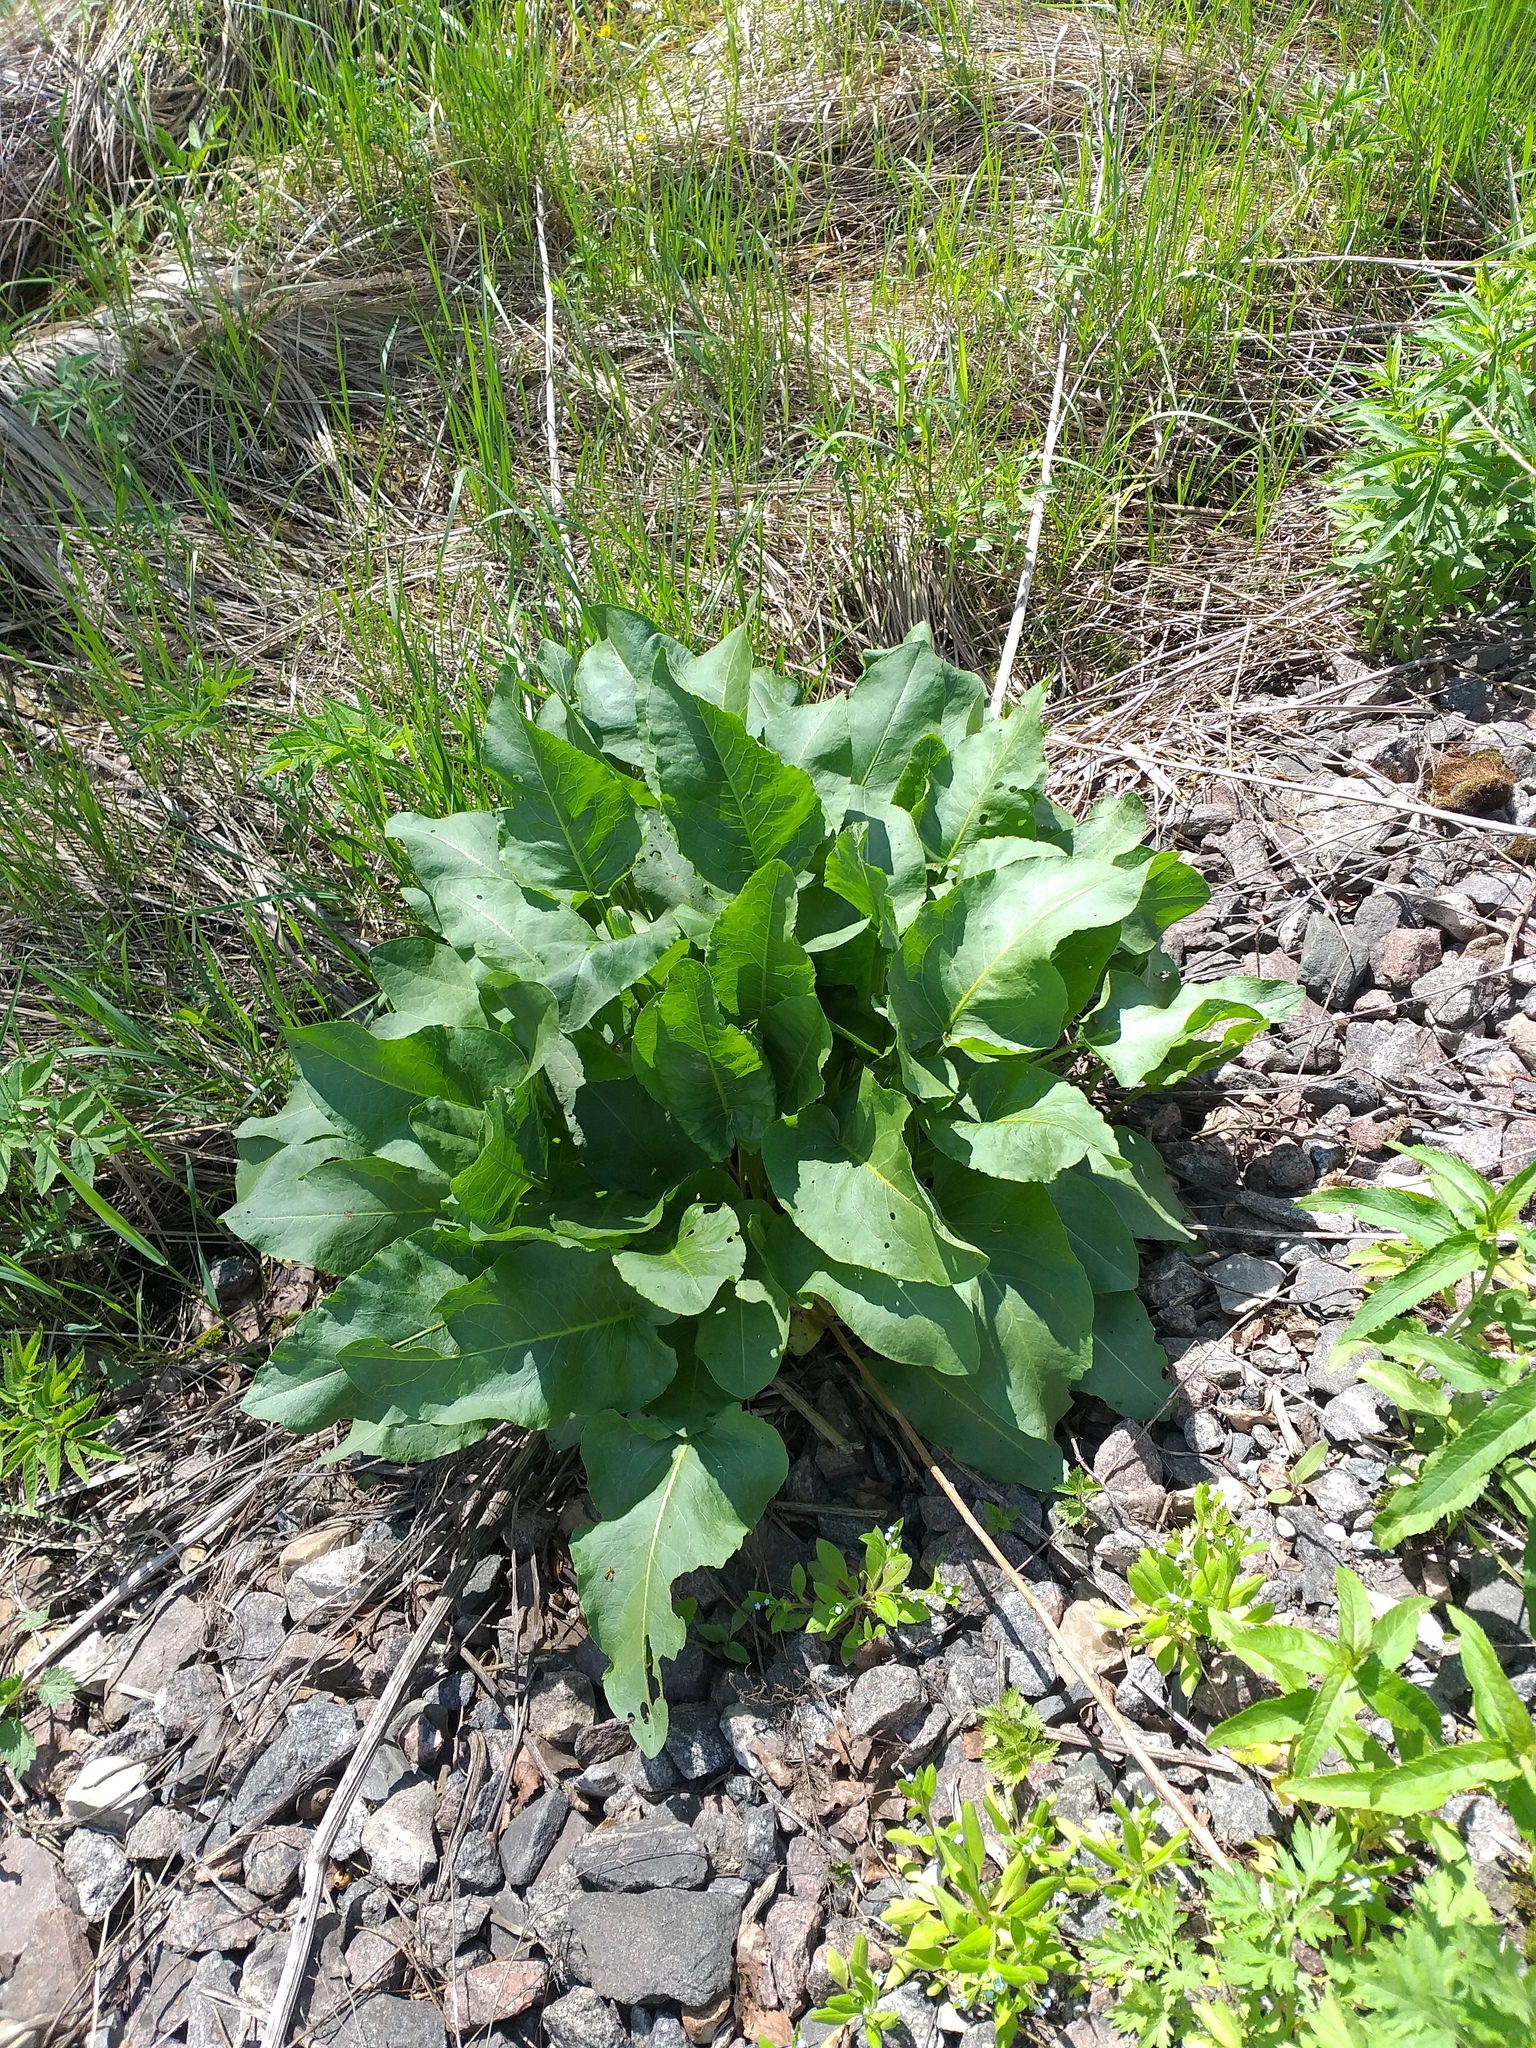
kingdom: Plantae
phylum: Tracheophyta
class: Magnoliopsida
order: Caryophyllales
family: Polygonaceae
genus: Rumex
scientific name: Rumex confertus
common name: Russian dock
